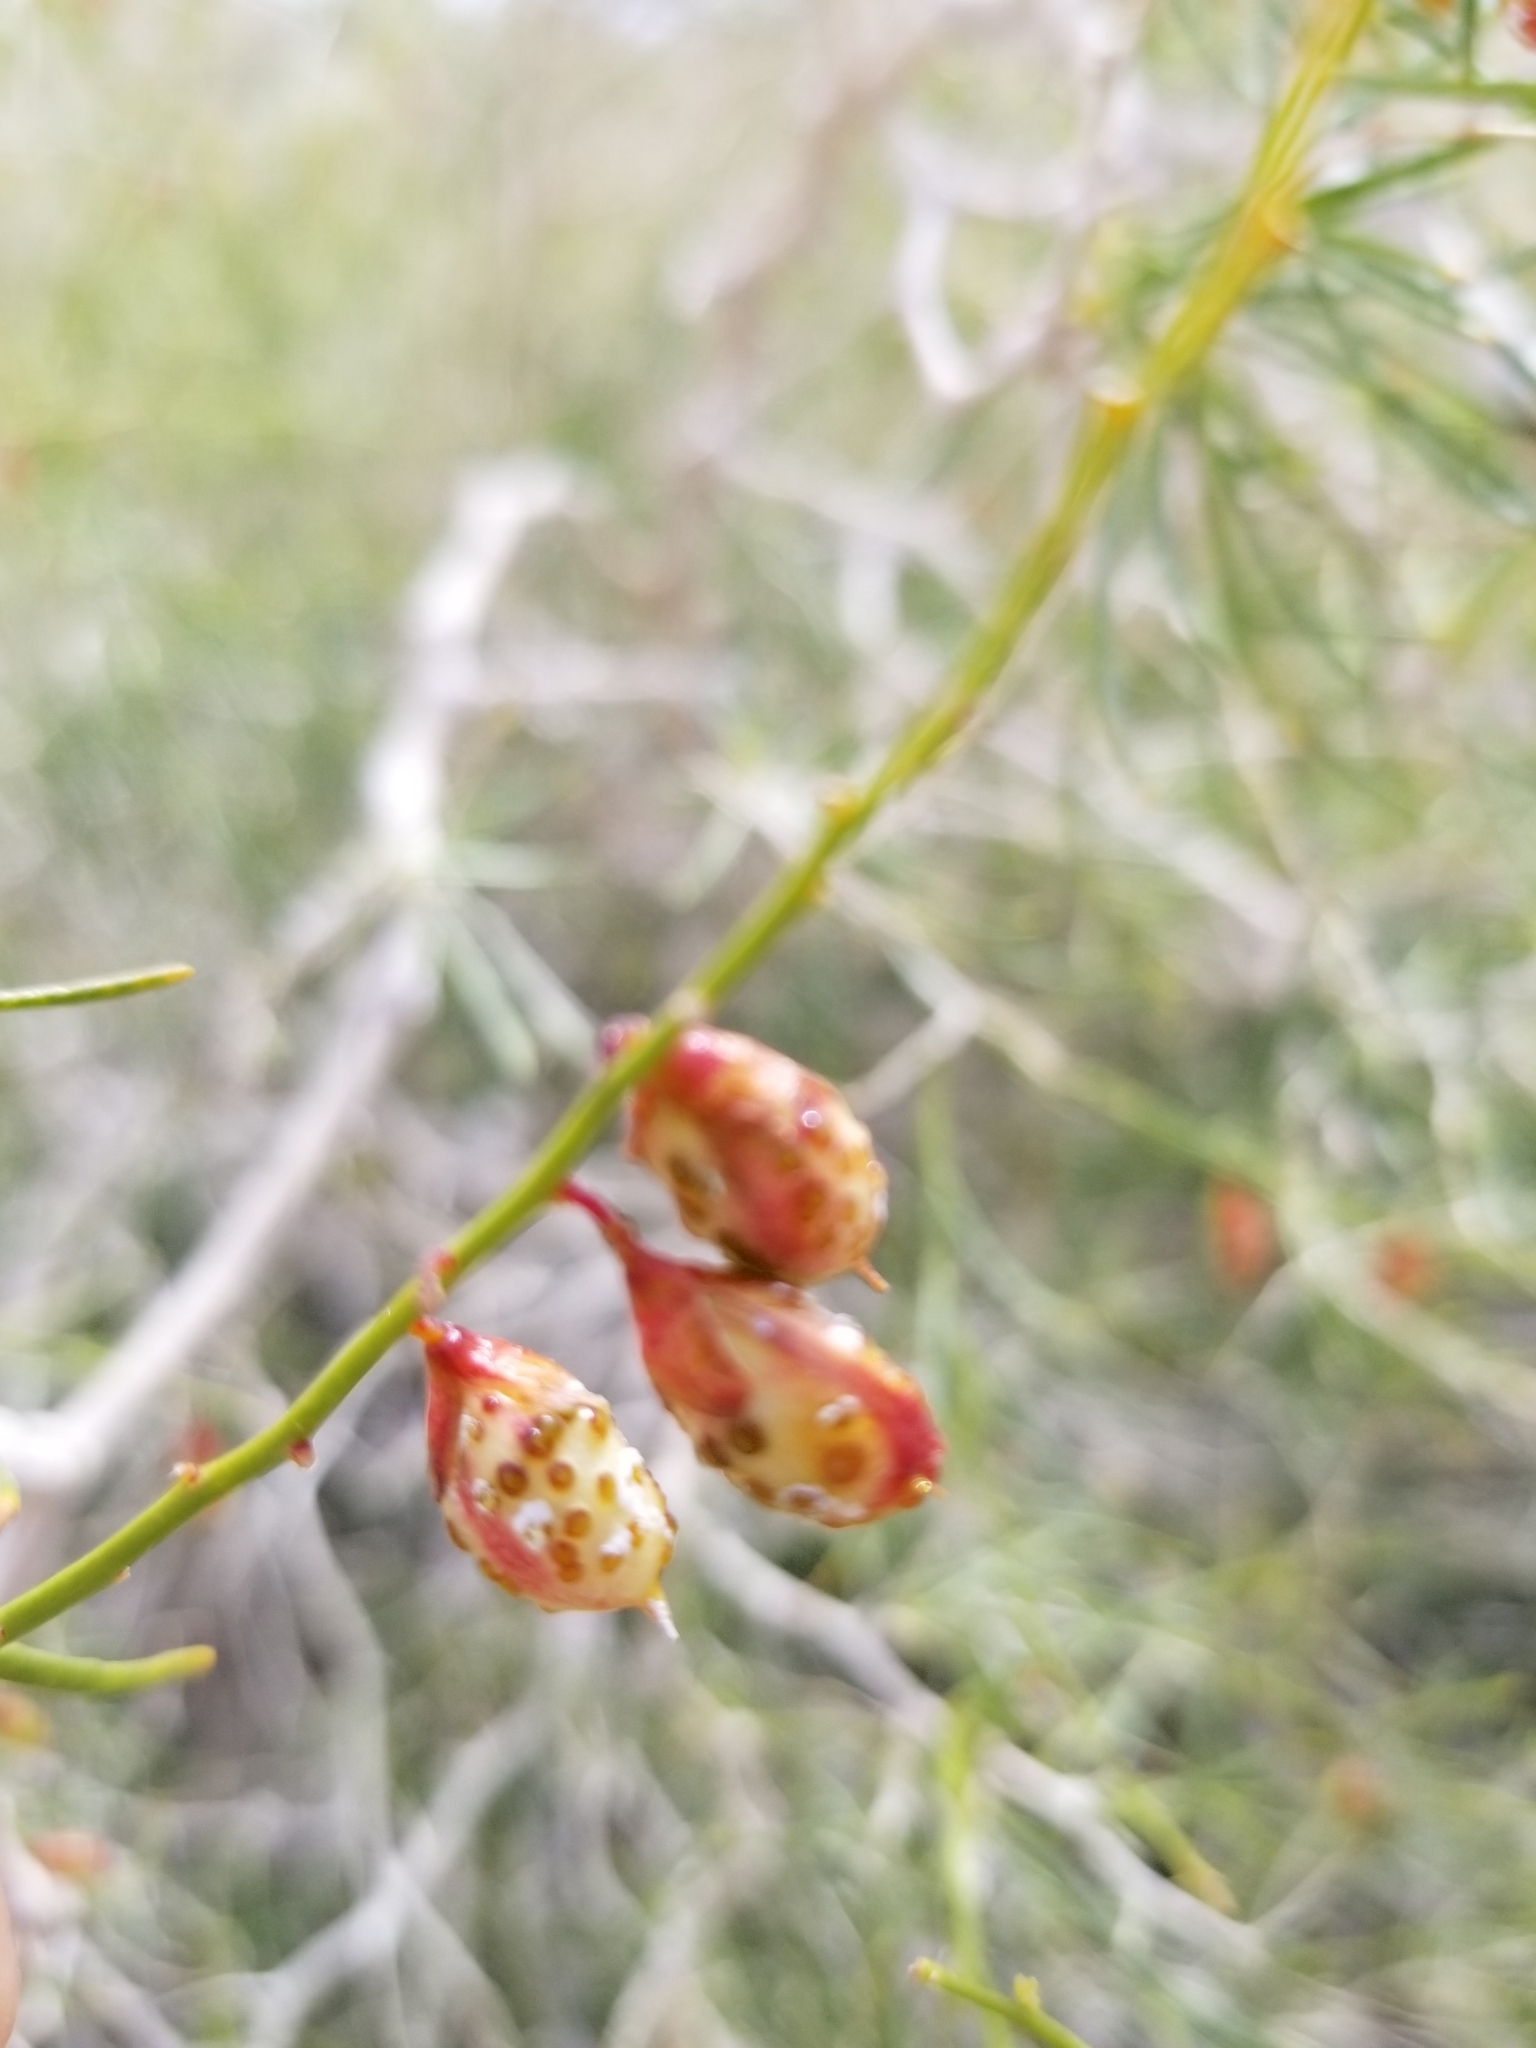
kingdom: Plantae
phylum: Tracheophyta
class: Magnoliopsida
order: Fabales
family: Fabaceae
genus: Psorothamnus
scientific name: Psorothamnus schottii
